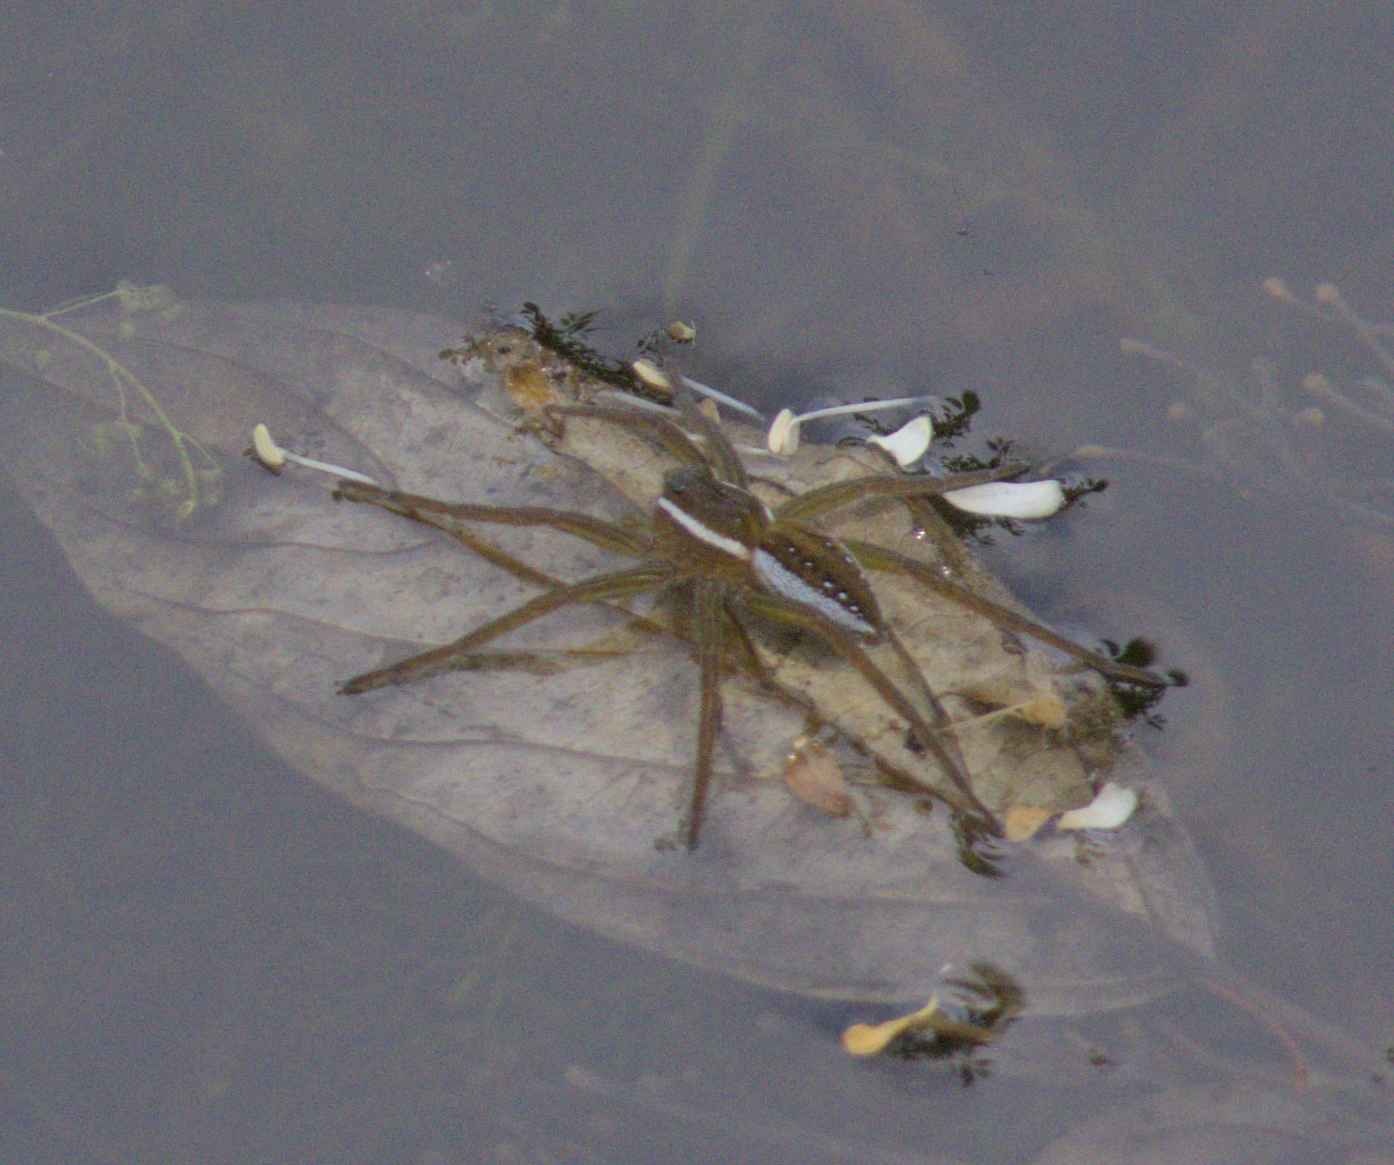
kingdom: Animalia
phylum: Arthropoda
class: Arachnida
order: Araneae
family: Pisauridae
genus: Dolomedes
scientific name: Dolomedes triton
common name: Six-spotted fishing spider
